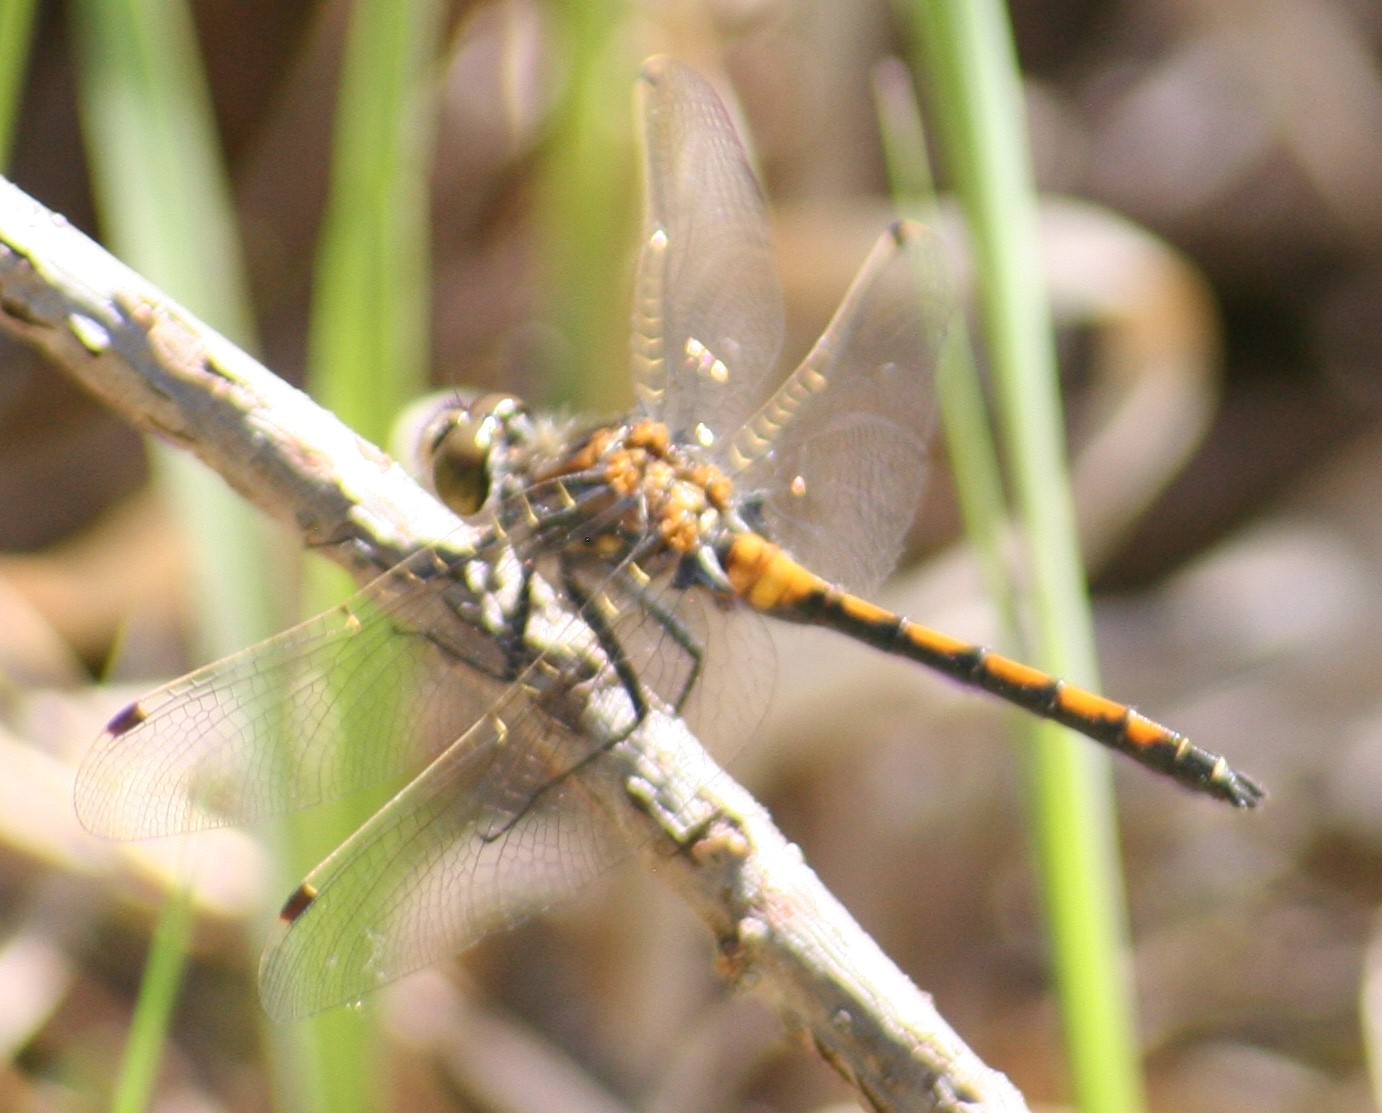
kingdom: Animalia
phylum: Arthropoda
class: Insecta
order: Odonata
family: Libellulidae
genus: Leucorrhinia
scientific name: Leucorrhinia borealis
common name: Boreal whiteface
